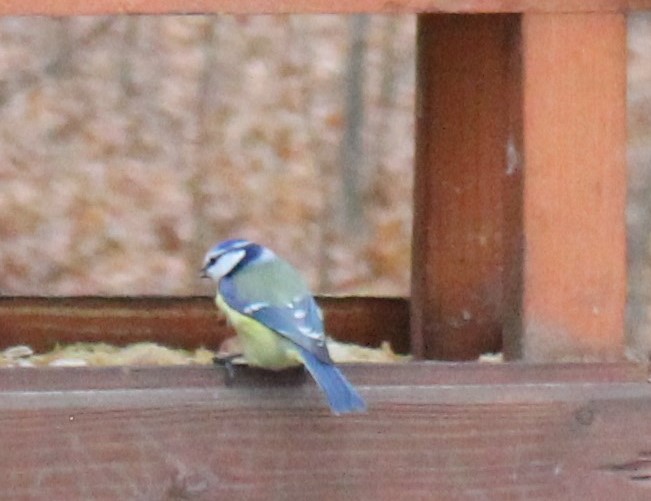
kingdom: Animalia
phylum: Chordata
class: Aves
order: Passeriformes
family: Paridae
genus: Cyanistes
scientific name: Cyanistes caeruleus
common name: Eurasian blue tit
